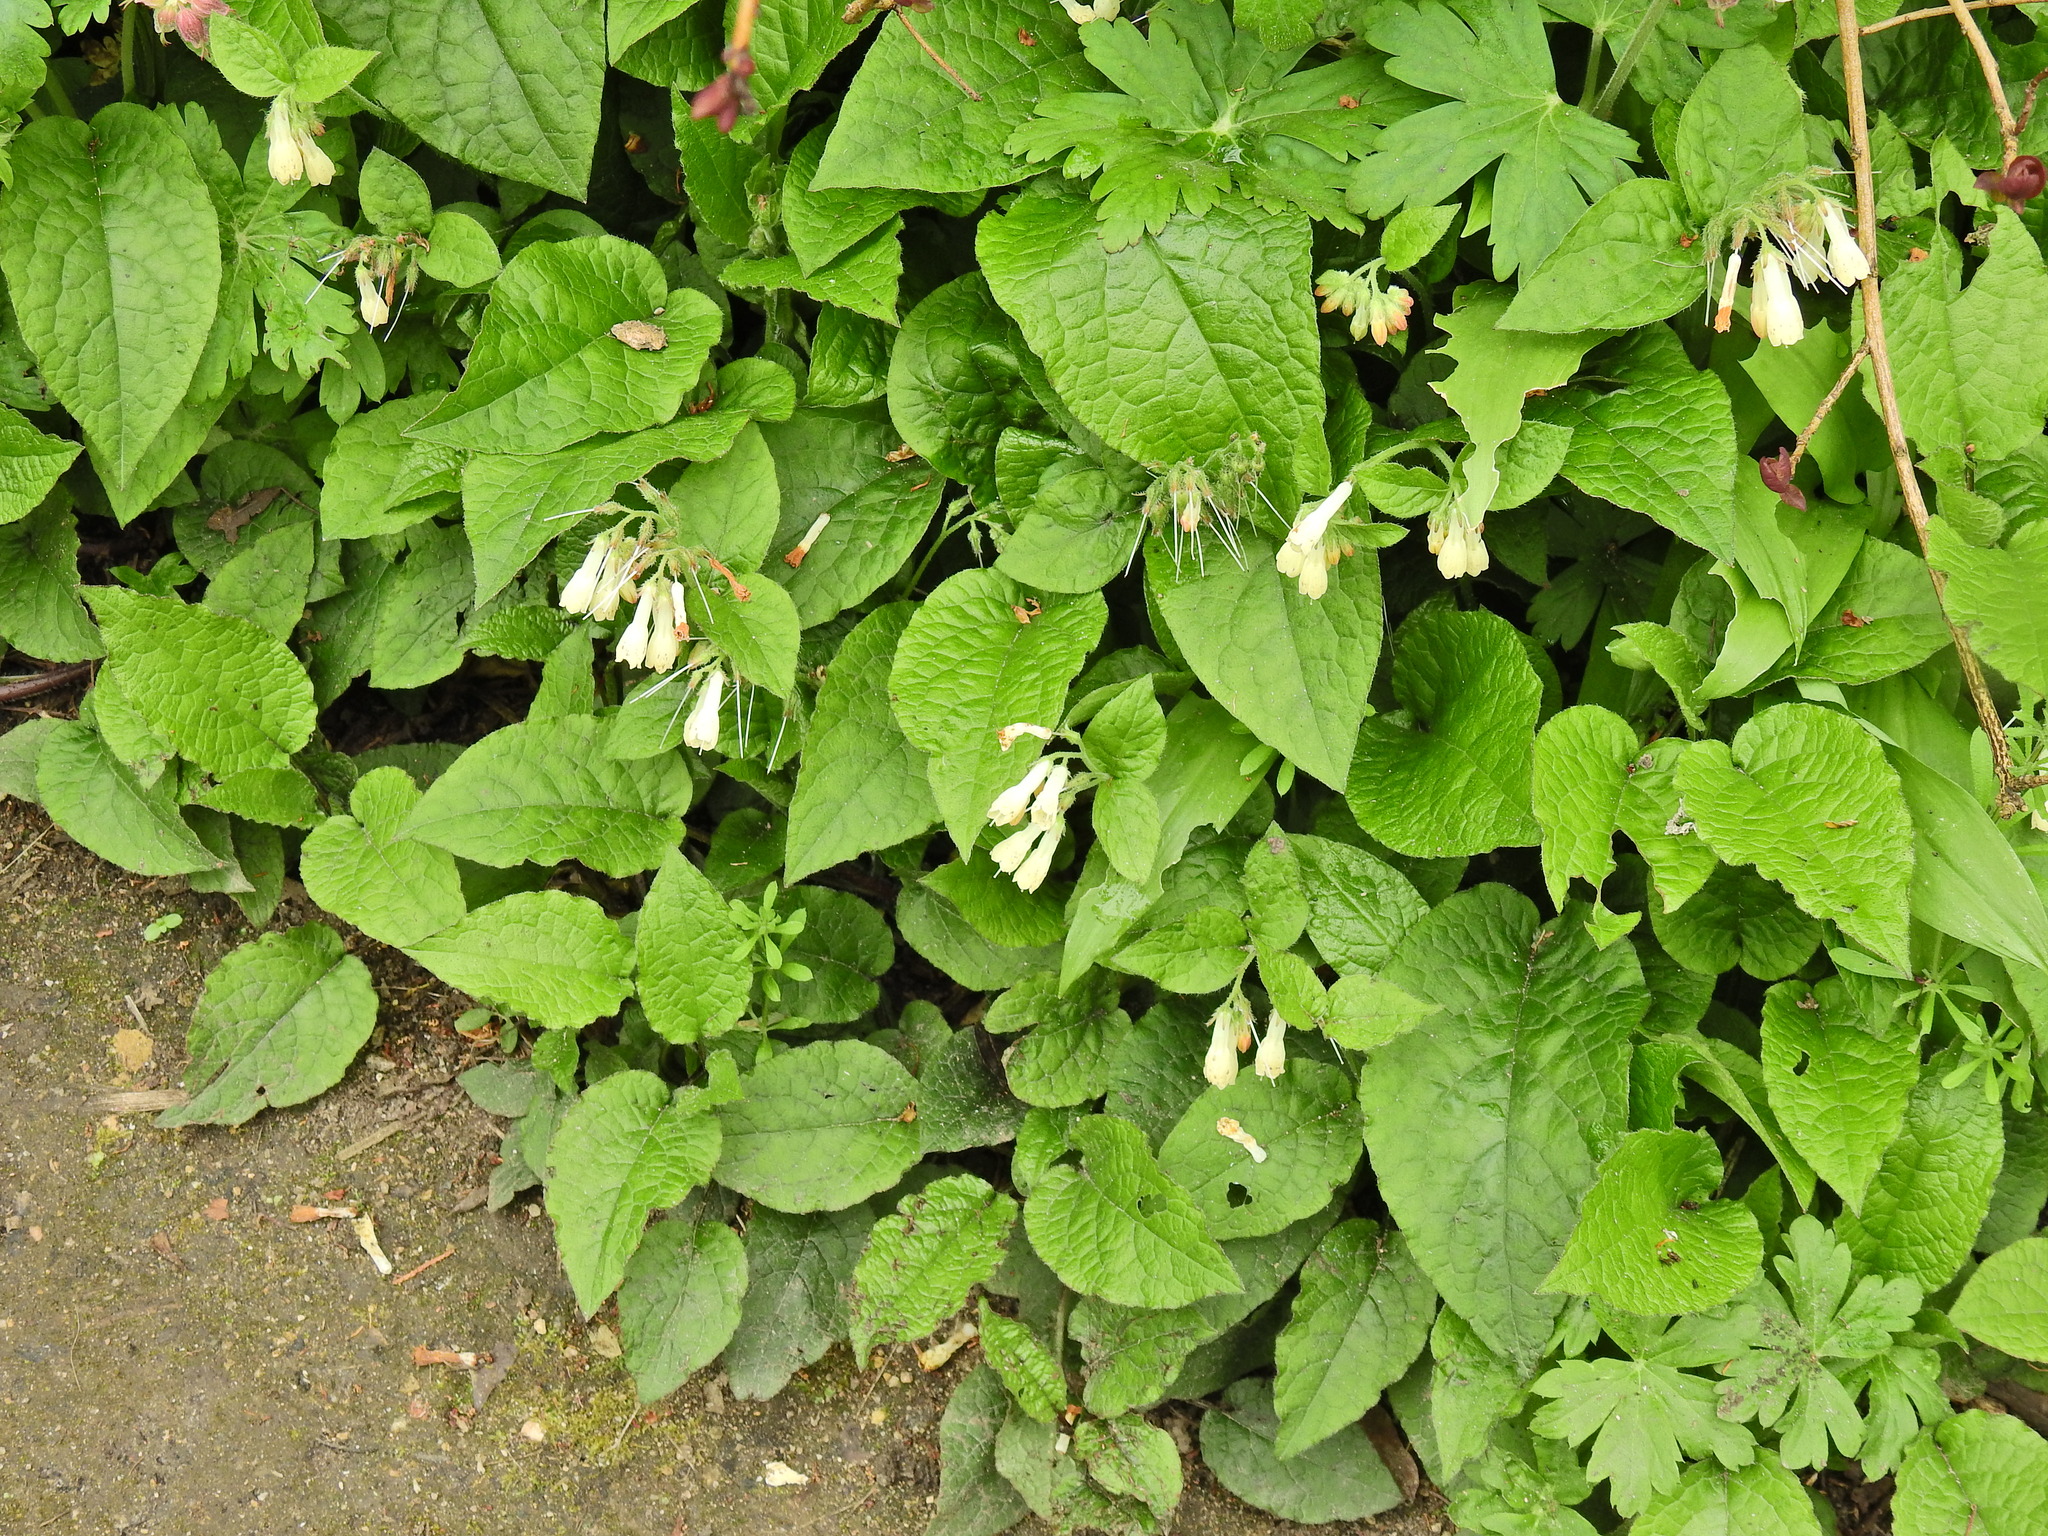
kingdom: Plantae
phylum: Tracheophyta
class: Magnoliopsida
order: Boraginales
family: Boraginaceae
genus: Symphytum
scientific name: Symphytum grandiflorum
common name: Creeping comfrey
